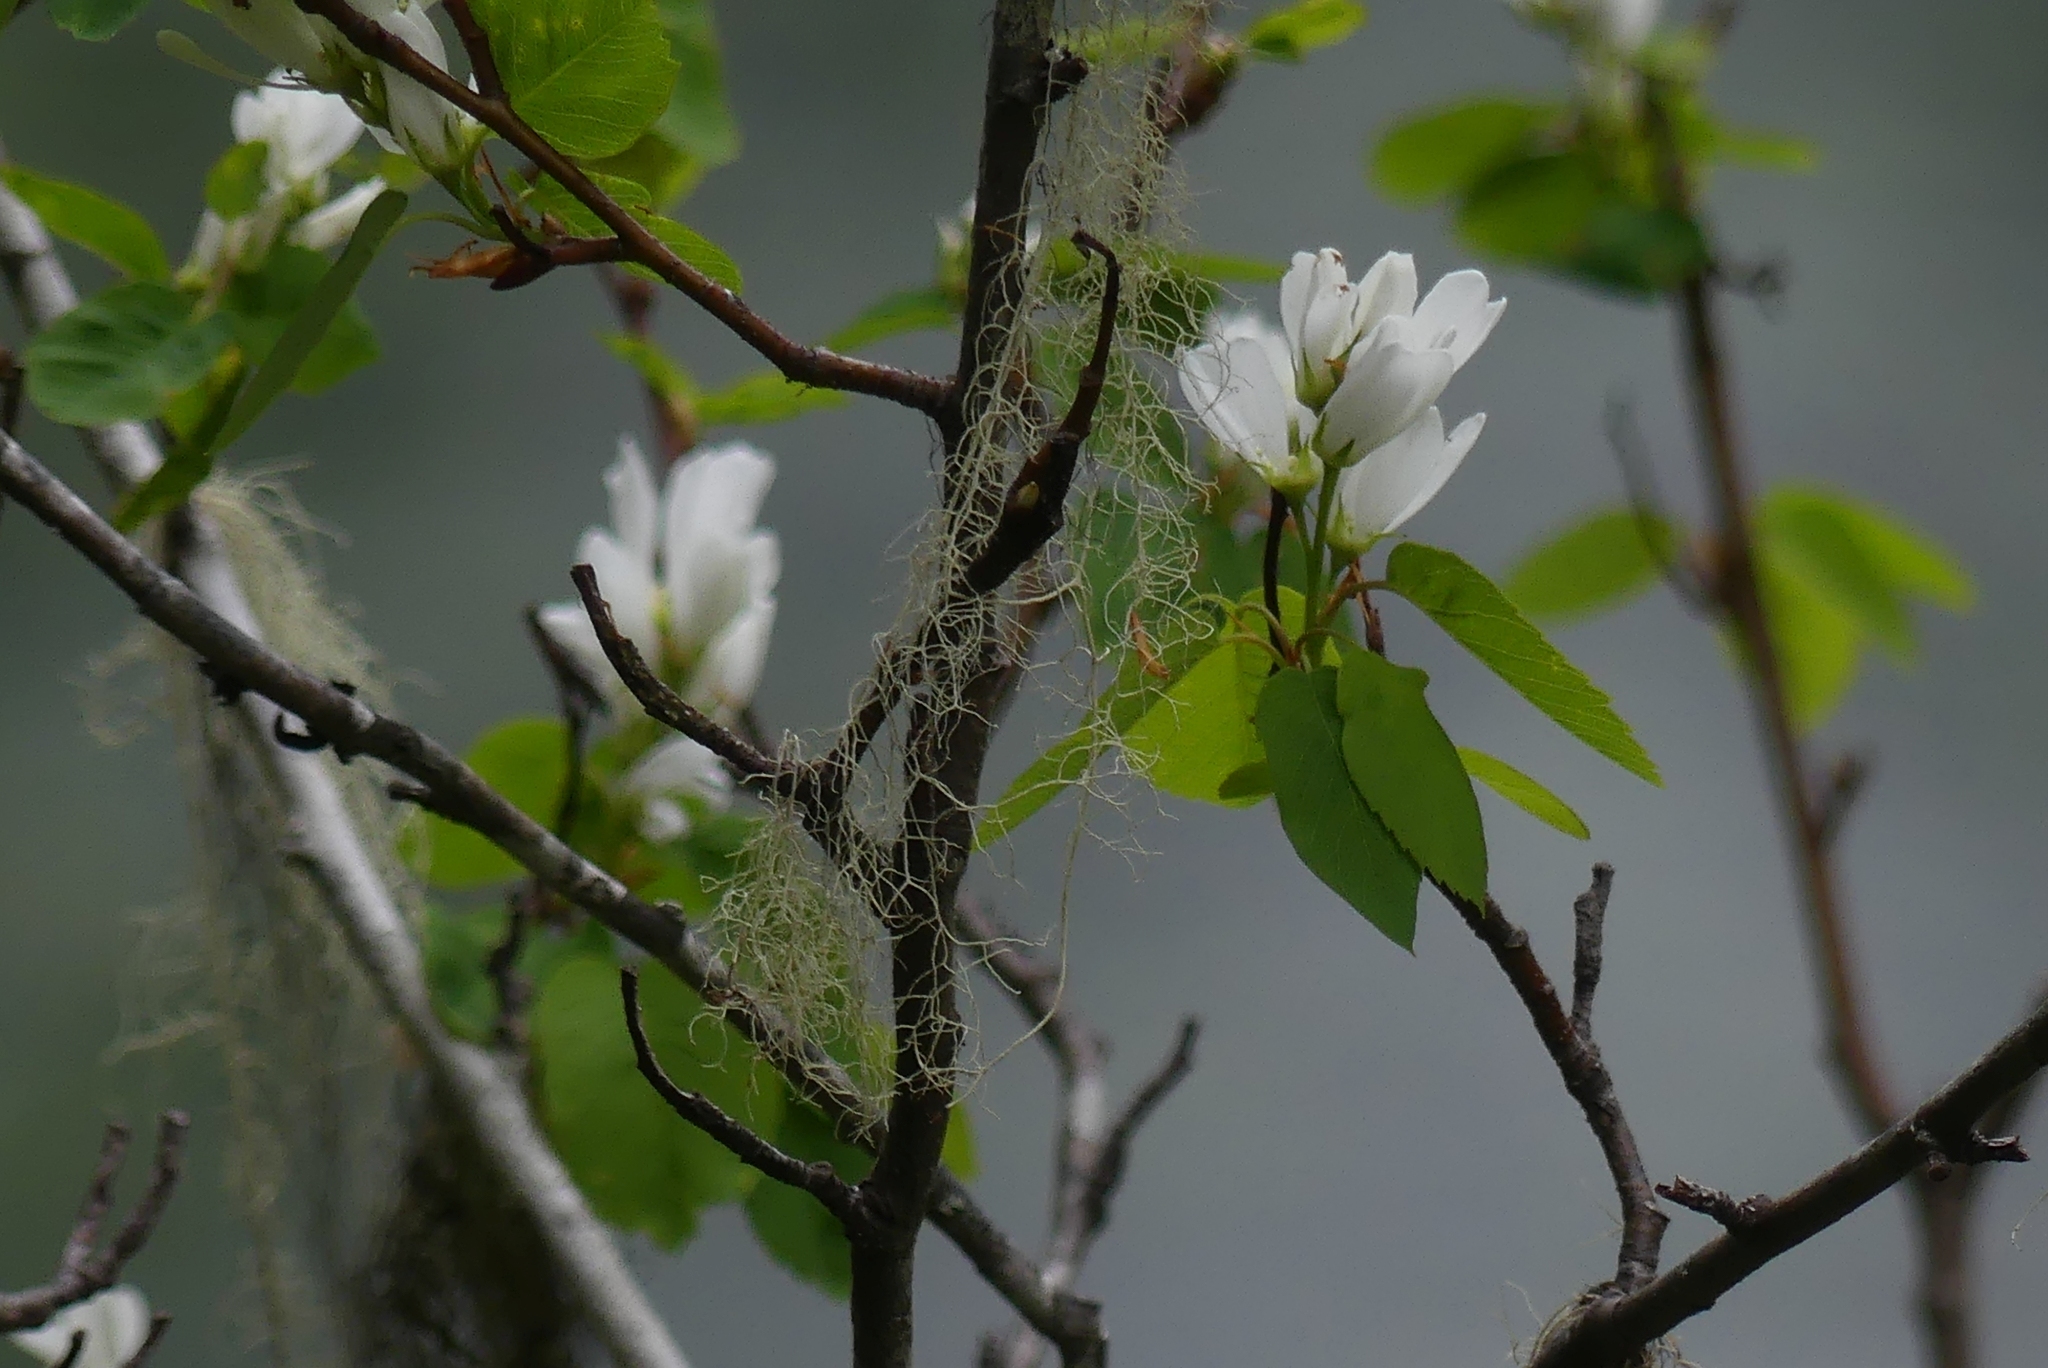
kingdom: Plantae
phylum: Tracheophyta
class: Magnoliopsida
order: Rosales
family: Rosaceae
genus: Amelanchier
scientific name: Amelanchier alnifolia
